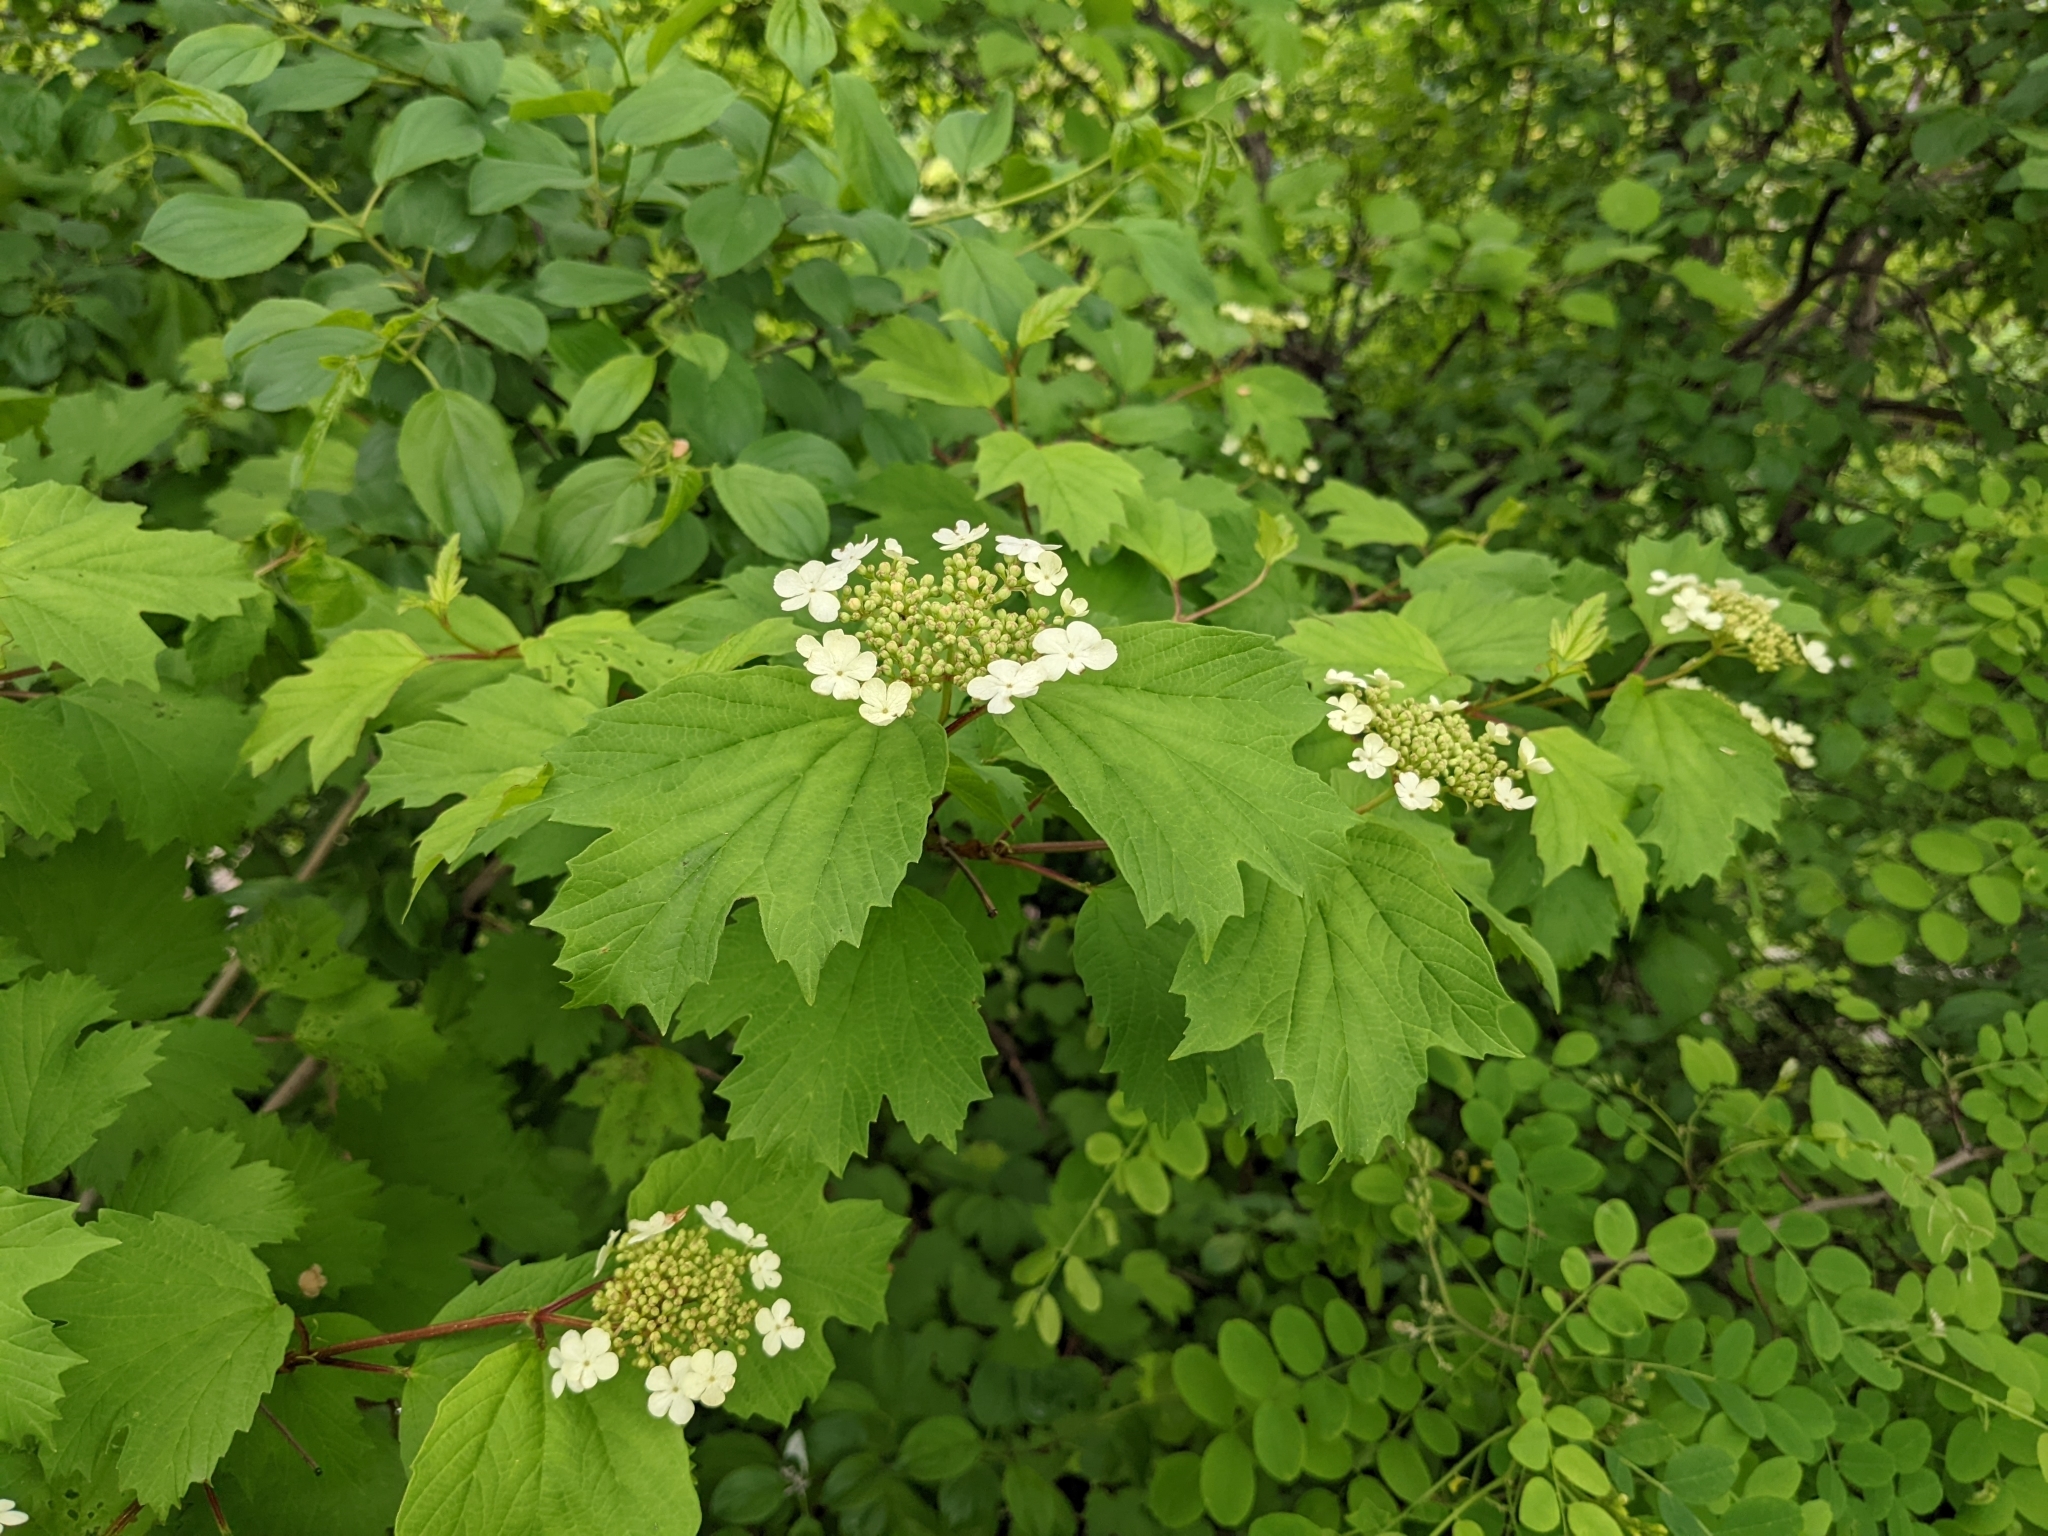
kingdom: Plantae
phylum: Tracheophyta
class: Magnoliopsida
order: Dipsacales
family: Viburnaceae
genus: Viburnum
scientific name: Viburnum opulus
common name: Guelder-rose
